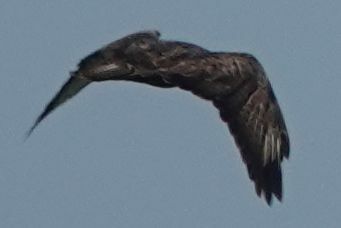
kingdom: Animalia
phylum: Chordata
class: Aves
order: Accipitriformes
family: Accipitridae
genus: Buteo
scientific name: Buteo buteo
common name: Common buzzard
